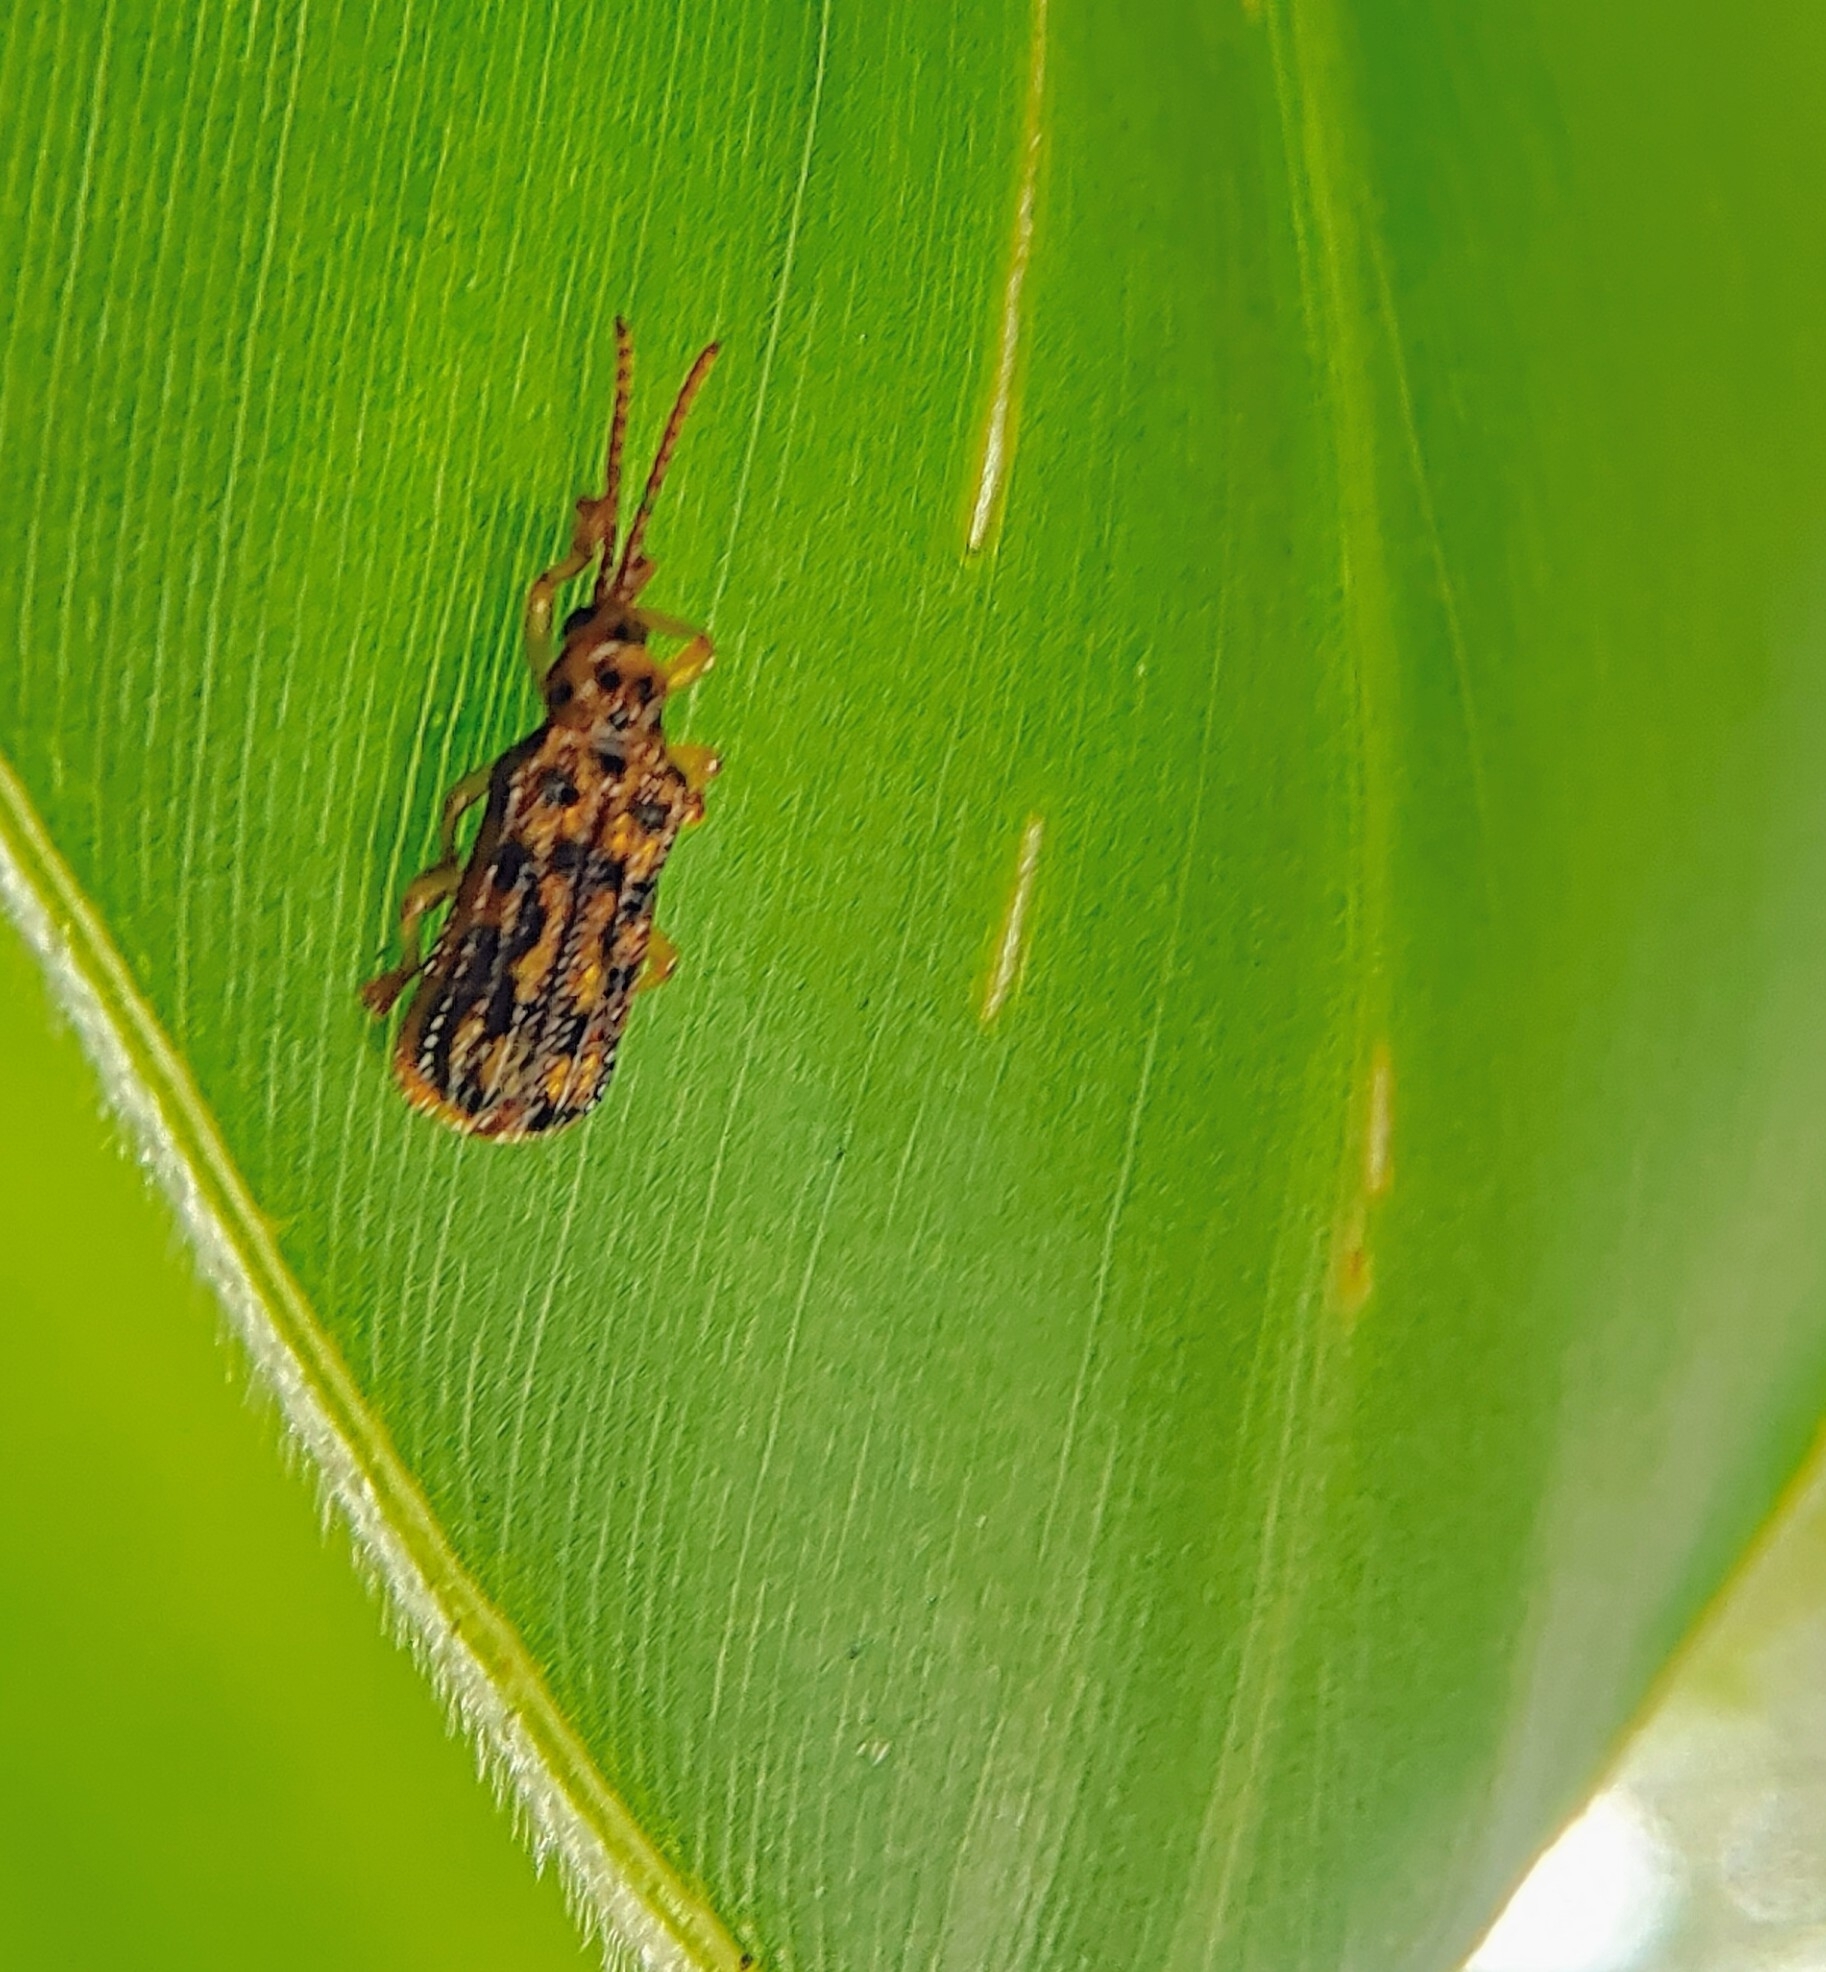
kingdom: Animalia
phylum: Arthropoda
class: Insecta
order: Coleoptera
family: Chrysomelidae
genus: Gonophora
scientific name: Gonophora pulchella
